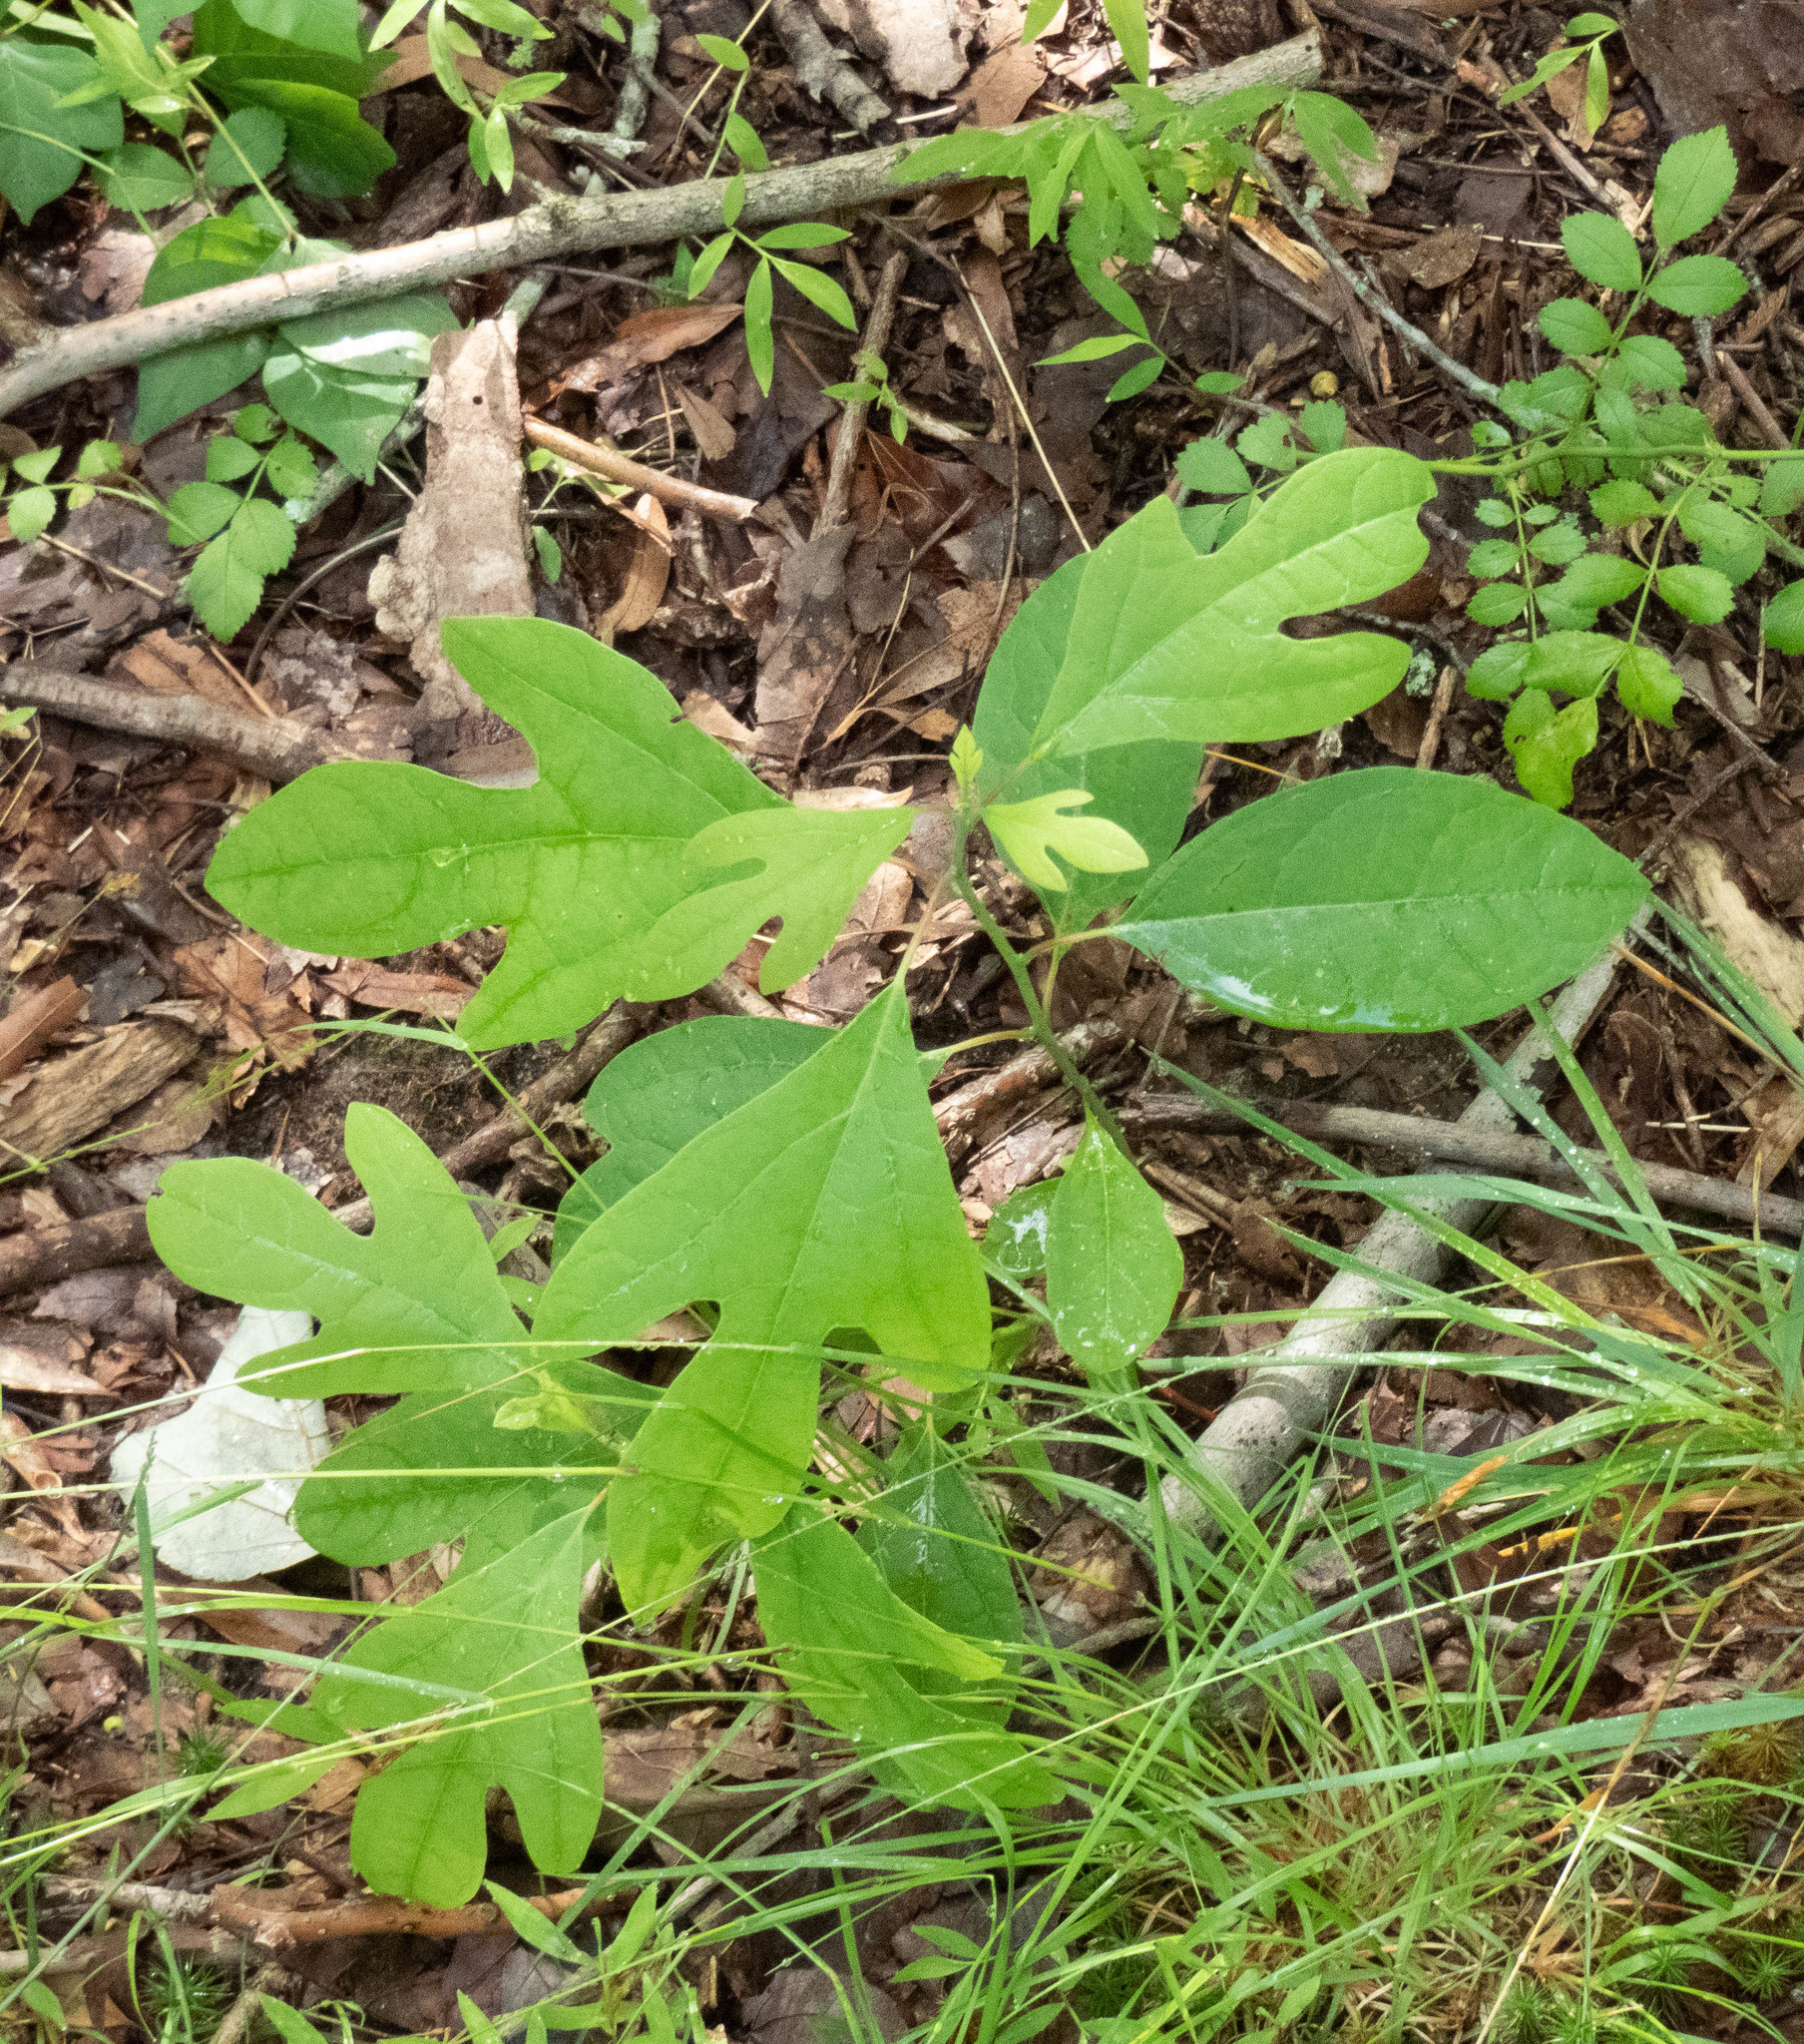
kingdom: Plantae
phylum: Tracheophyta
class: Magnoliopsida
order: Laurales
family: Lauraceae
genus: Sassafras
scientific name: Sassafras albidum
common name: Sassafras
